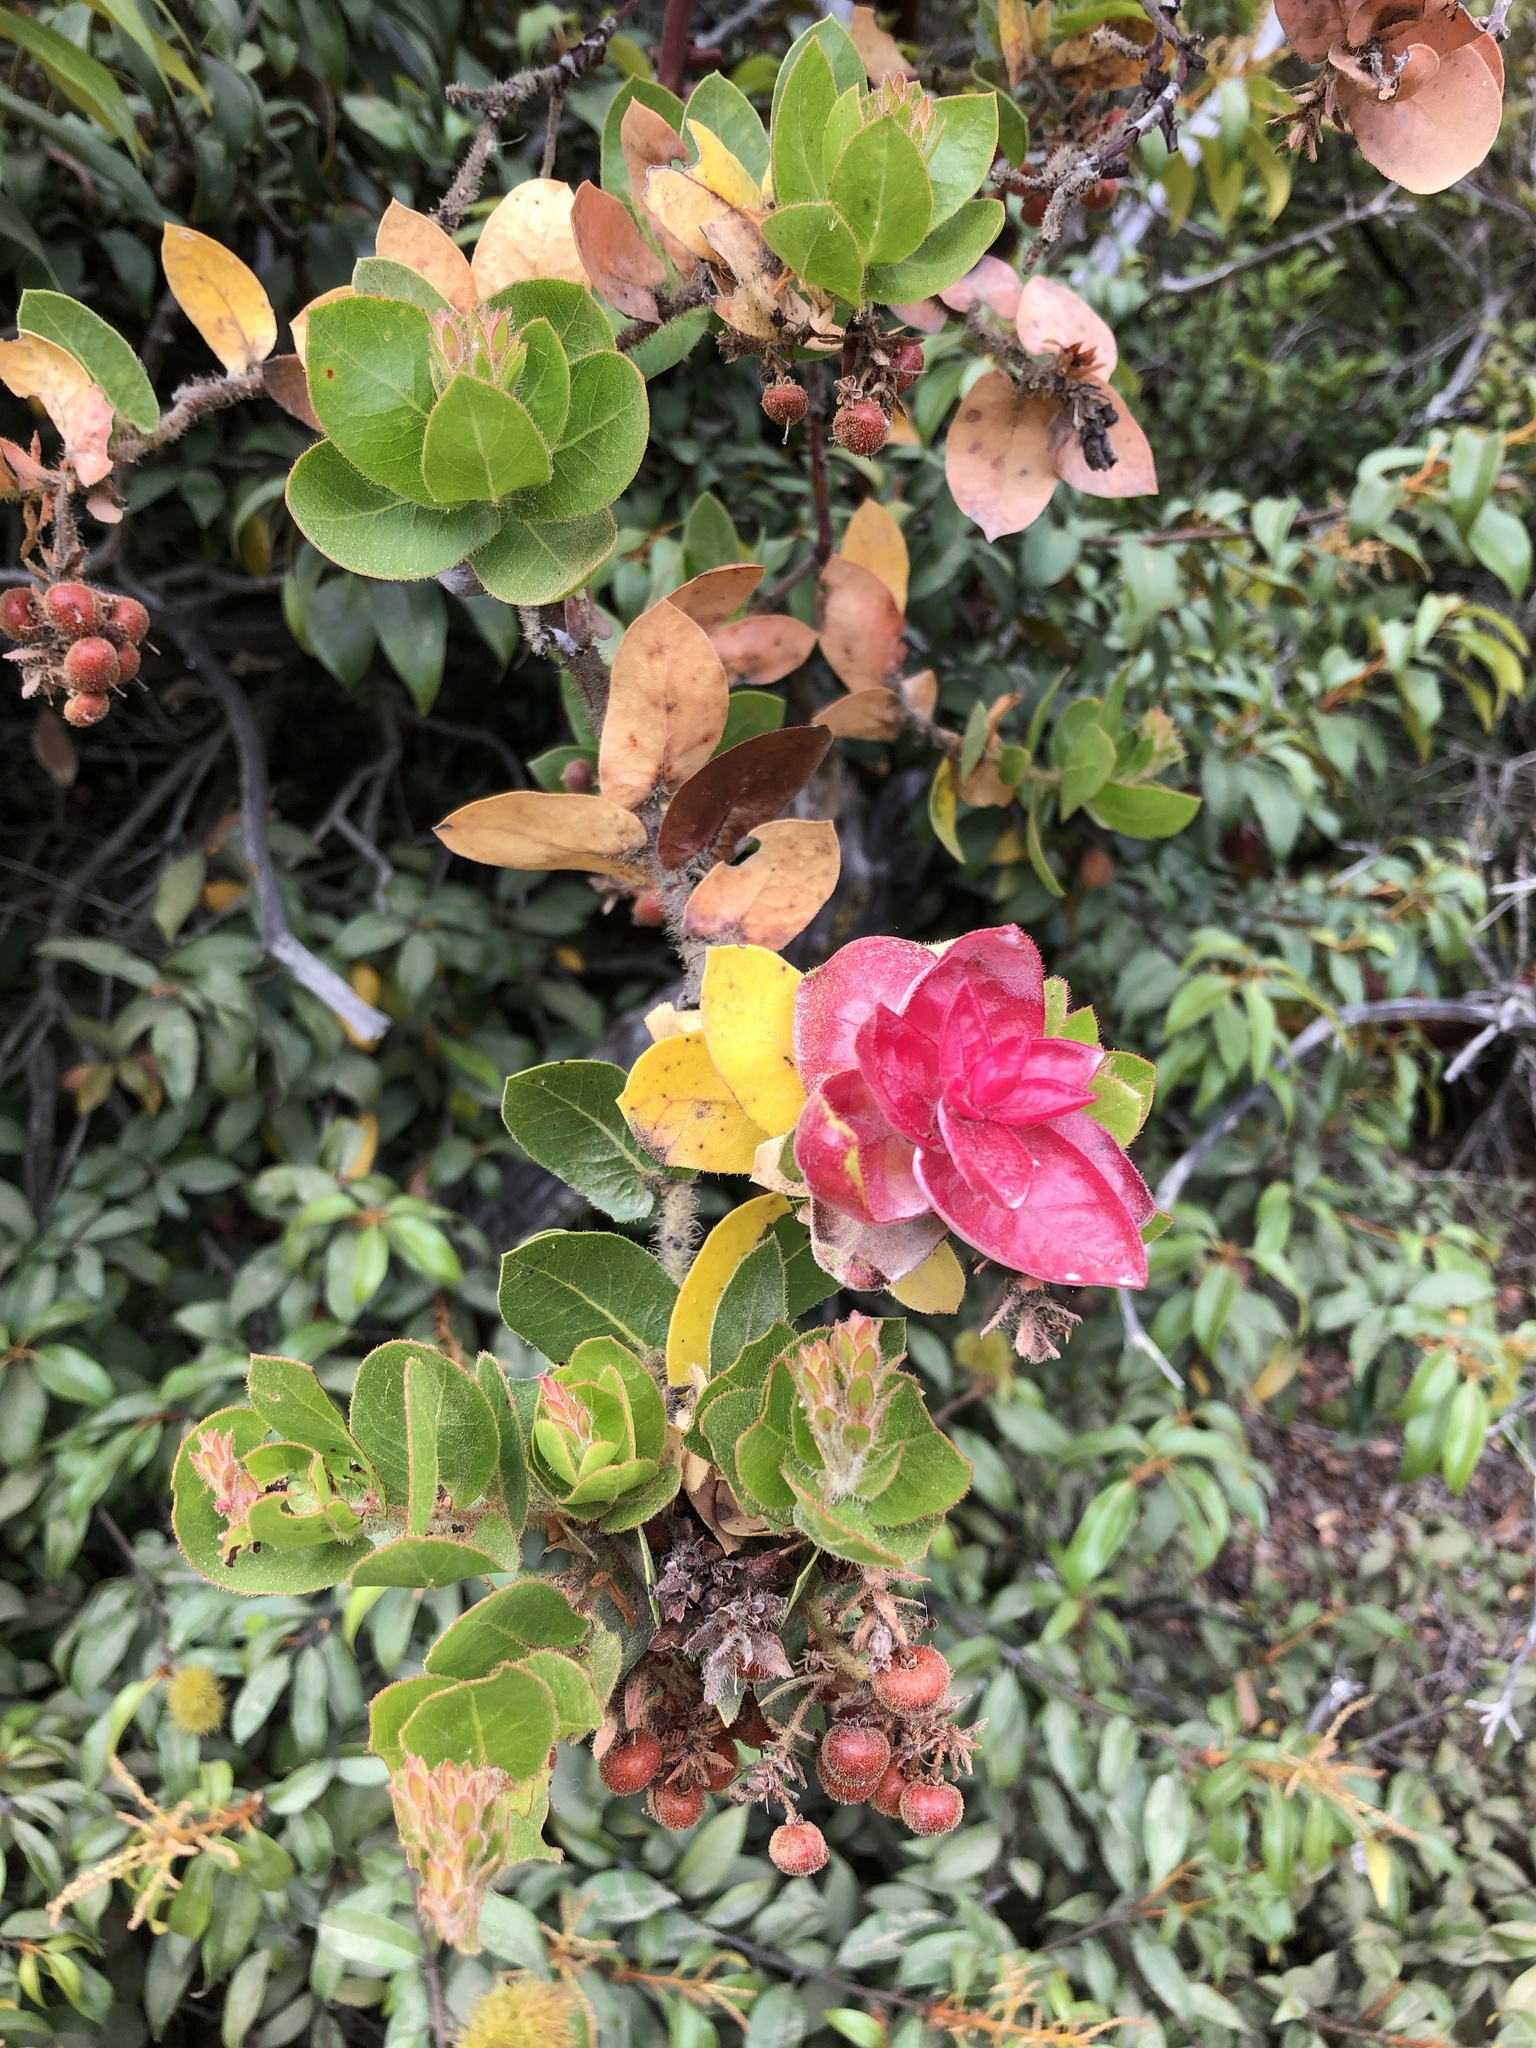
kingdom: Plantae
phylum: Tracheophyta
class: Magnoliopsida
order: Ericales
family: Ericaceae
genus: Arctostaphylos
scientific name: Arctostaphylos montaraensis
